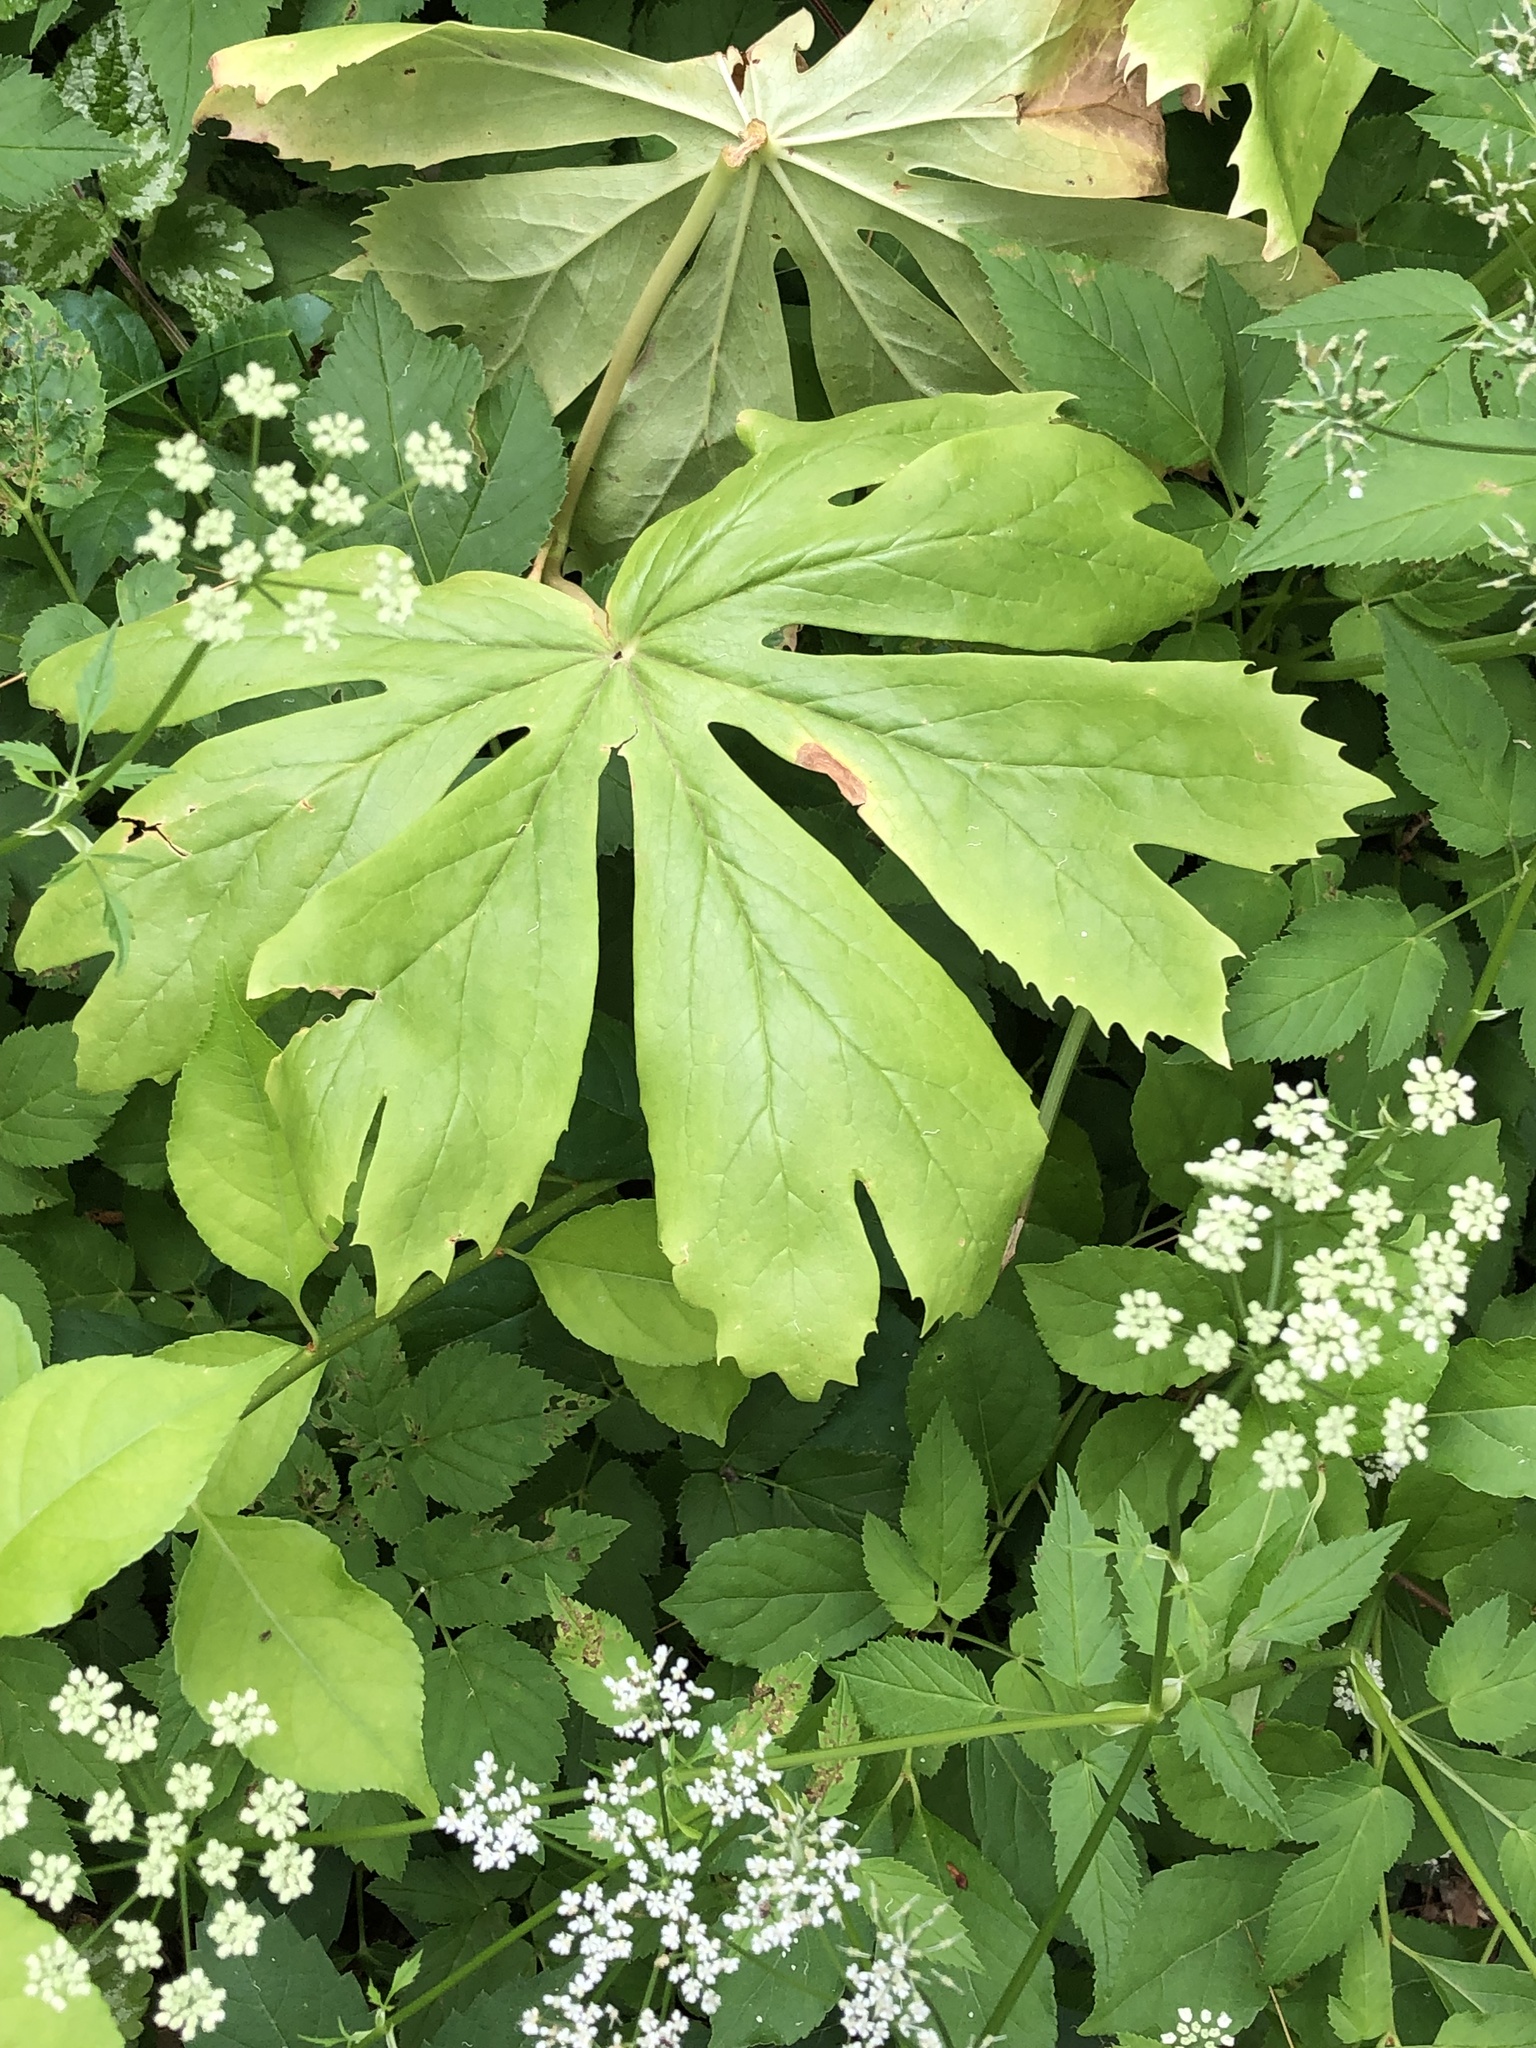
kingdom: Plantae
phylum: Tracheophyta
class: Magnoliopsida
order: Ranunculales
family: Berberidaceae
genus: Podophyllum
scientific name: Podophyllum peltatum
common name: Wild mandrake
